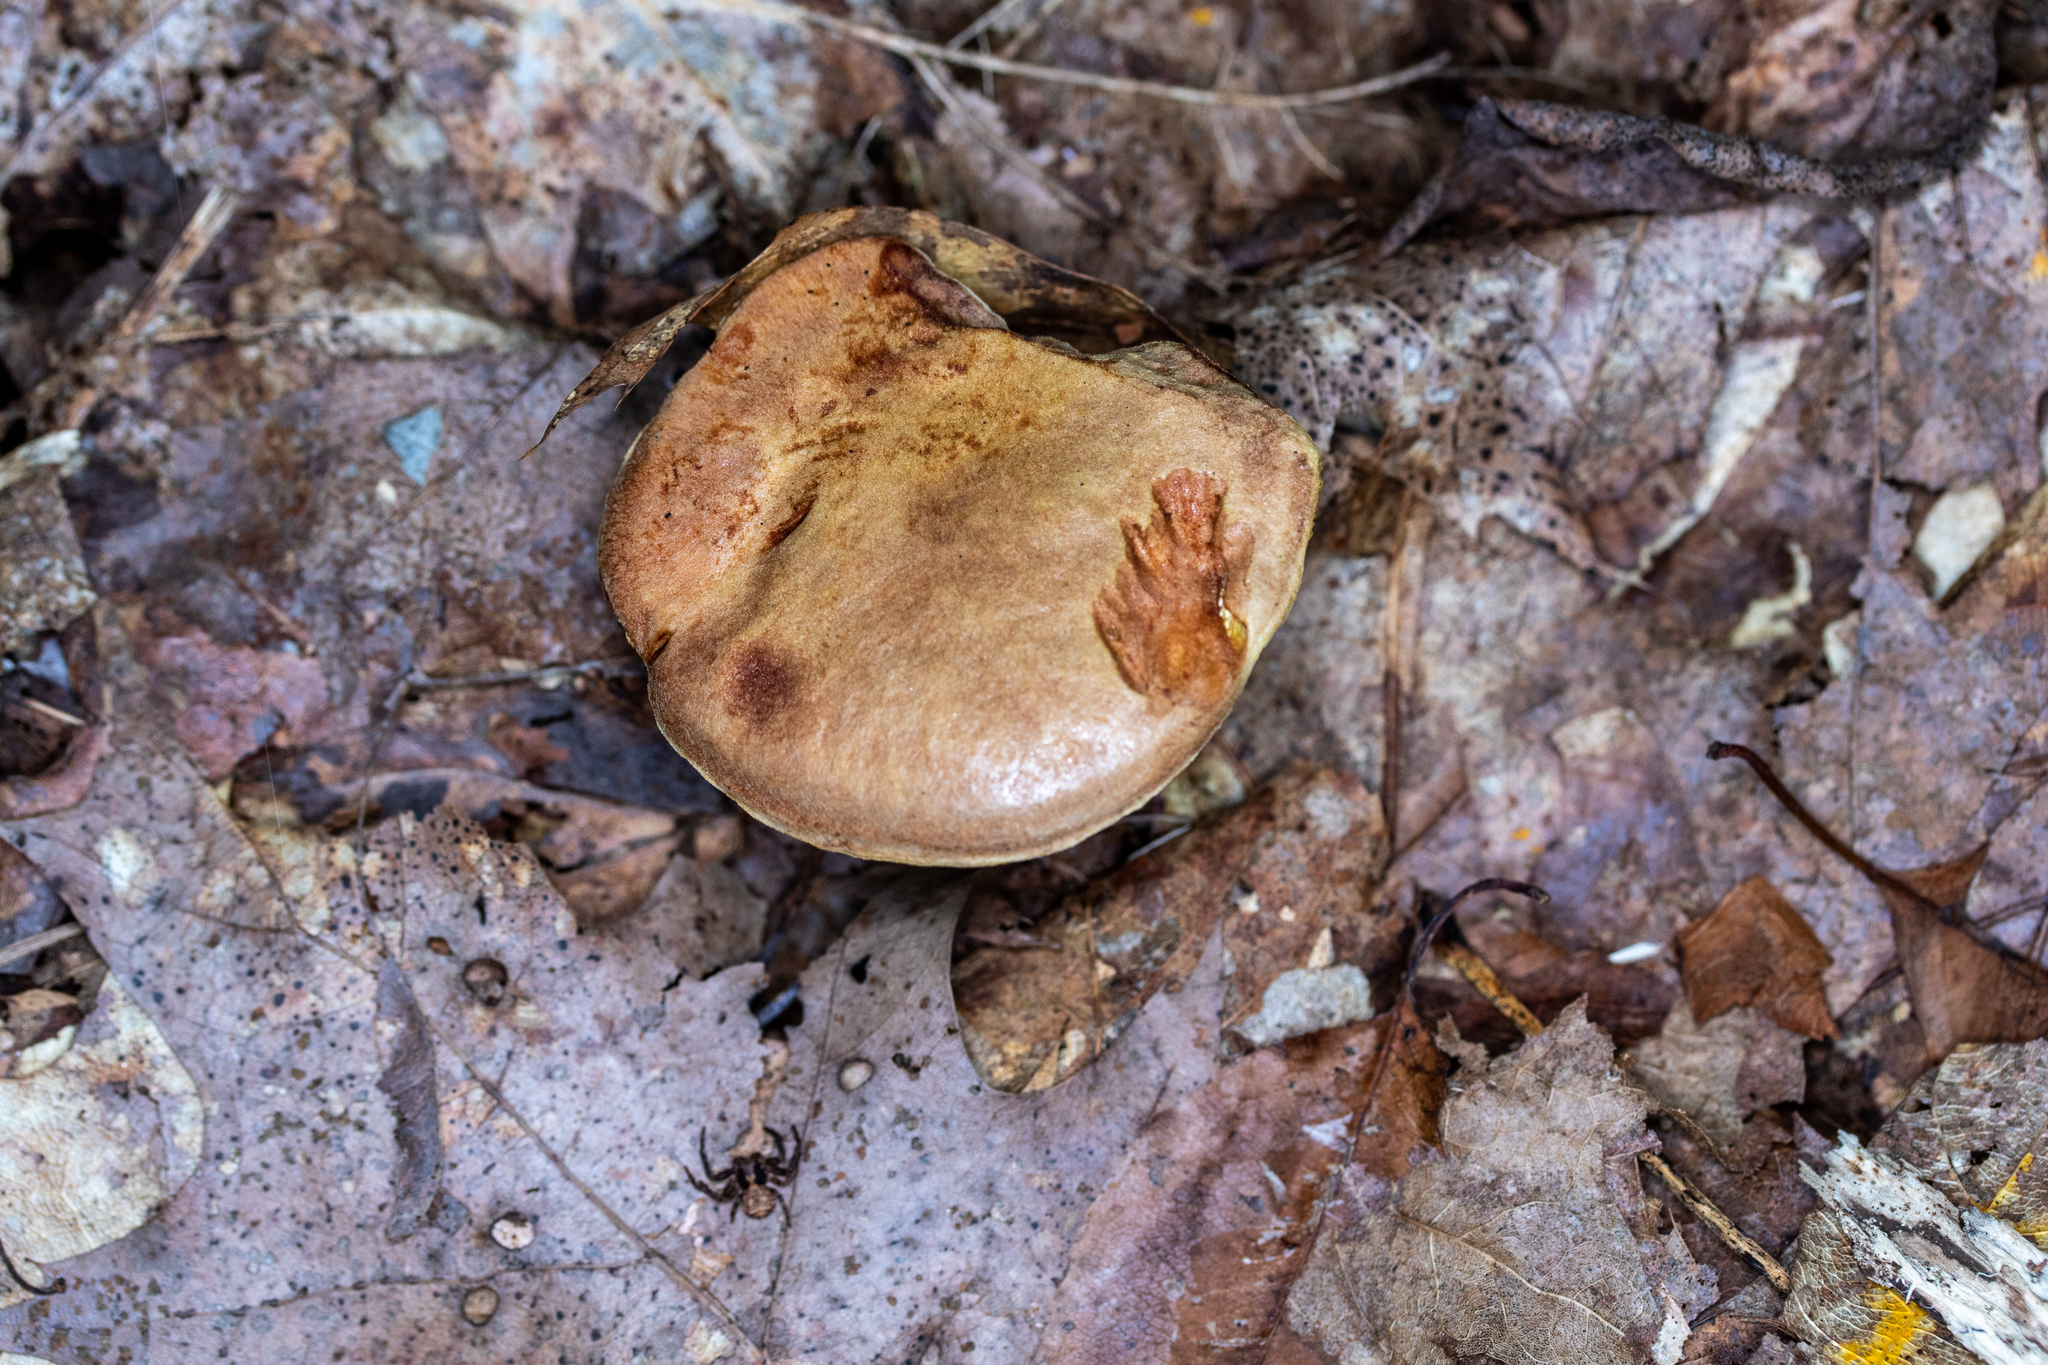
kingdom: Fungi
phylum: Basidiomycota
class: Agaricomycetes
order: Boletales
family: Boletaceae
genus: Aureoboletus
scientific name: Aureoboletus innixus
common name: Clustered brown bolete
